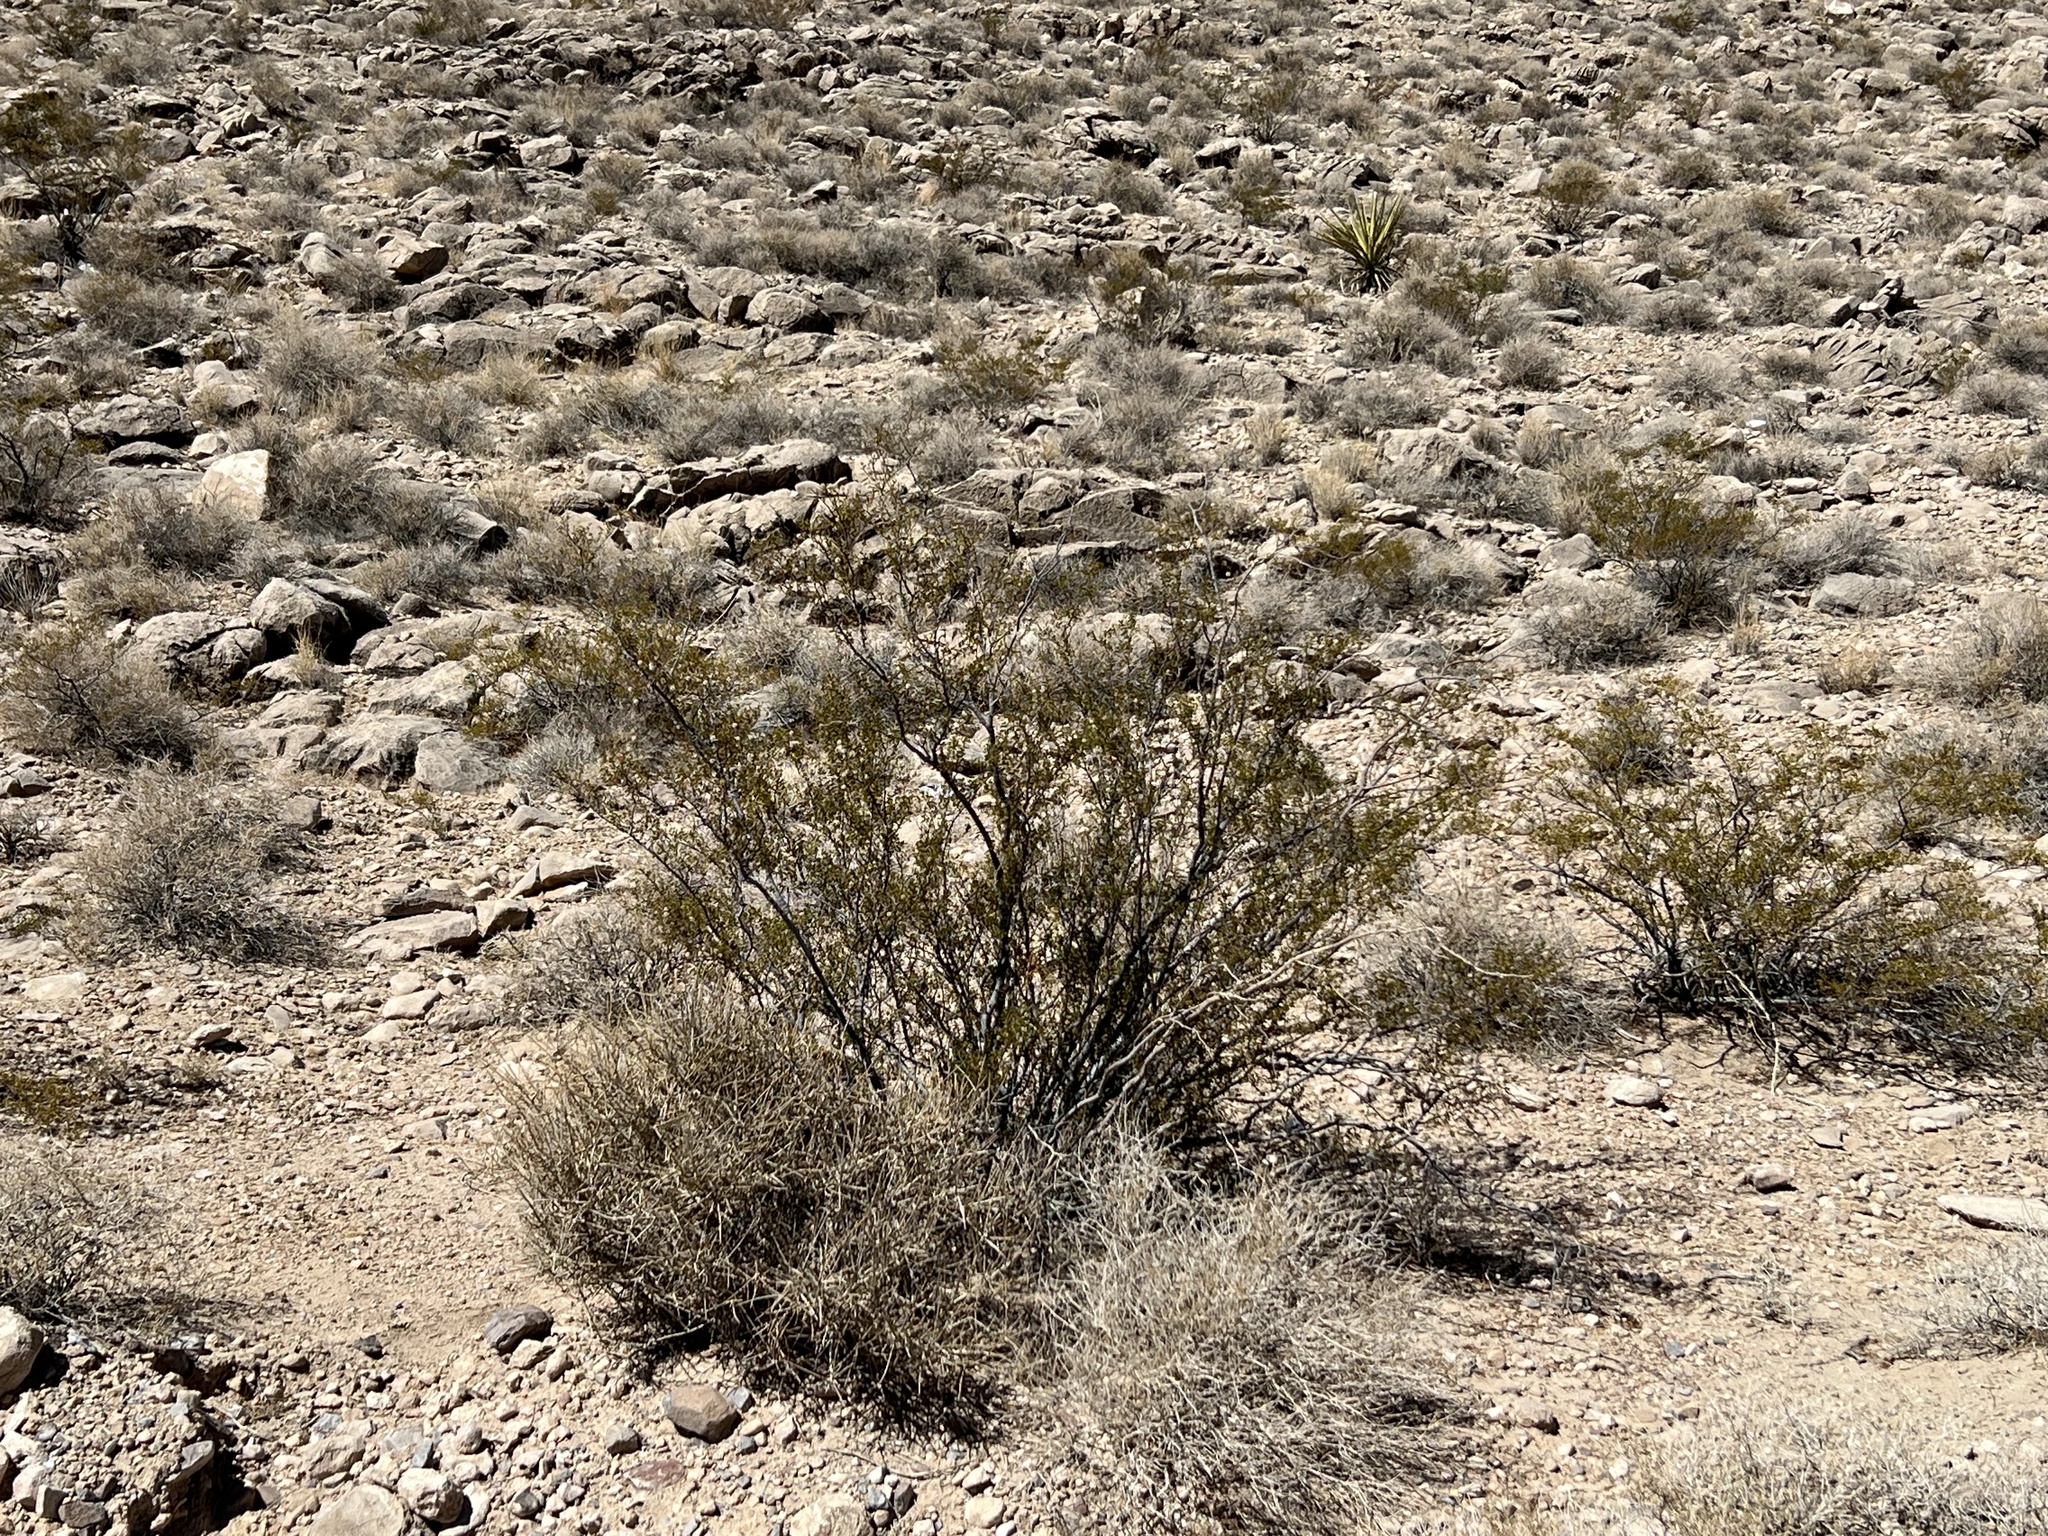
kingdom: Plantae
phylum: Tracheophyta
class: Magnoliopsida
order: Zygophyllales
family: Zygophyllaceae
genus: Larrea
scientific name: Larrea tridentata
